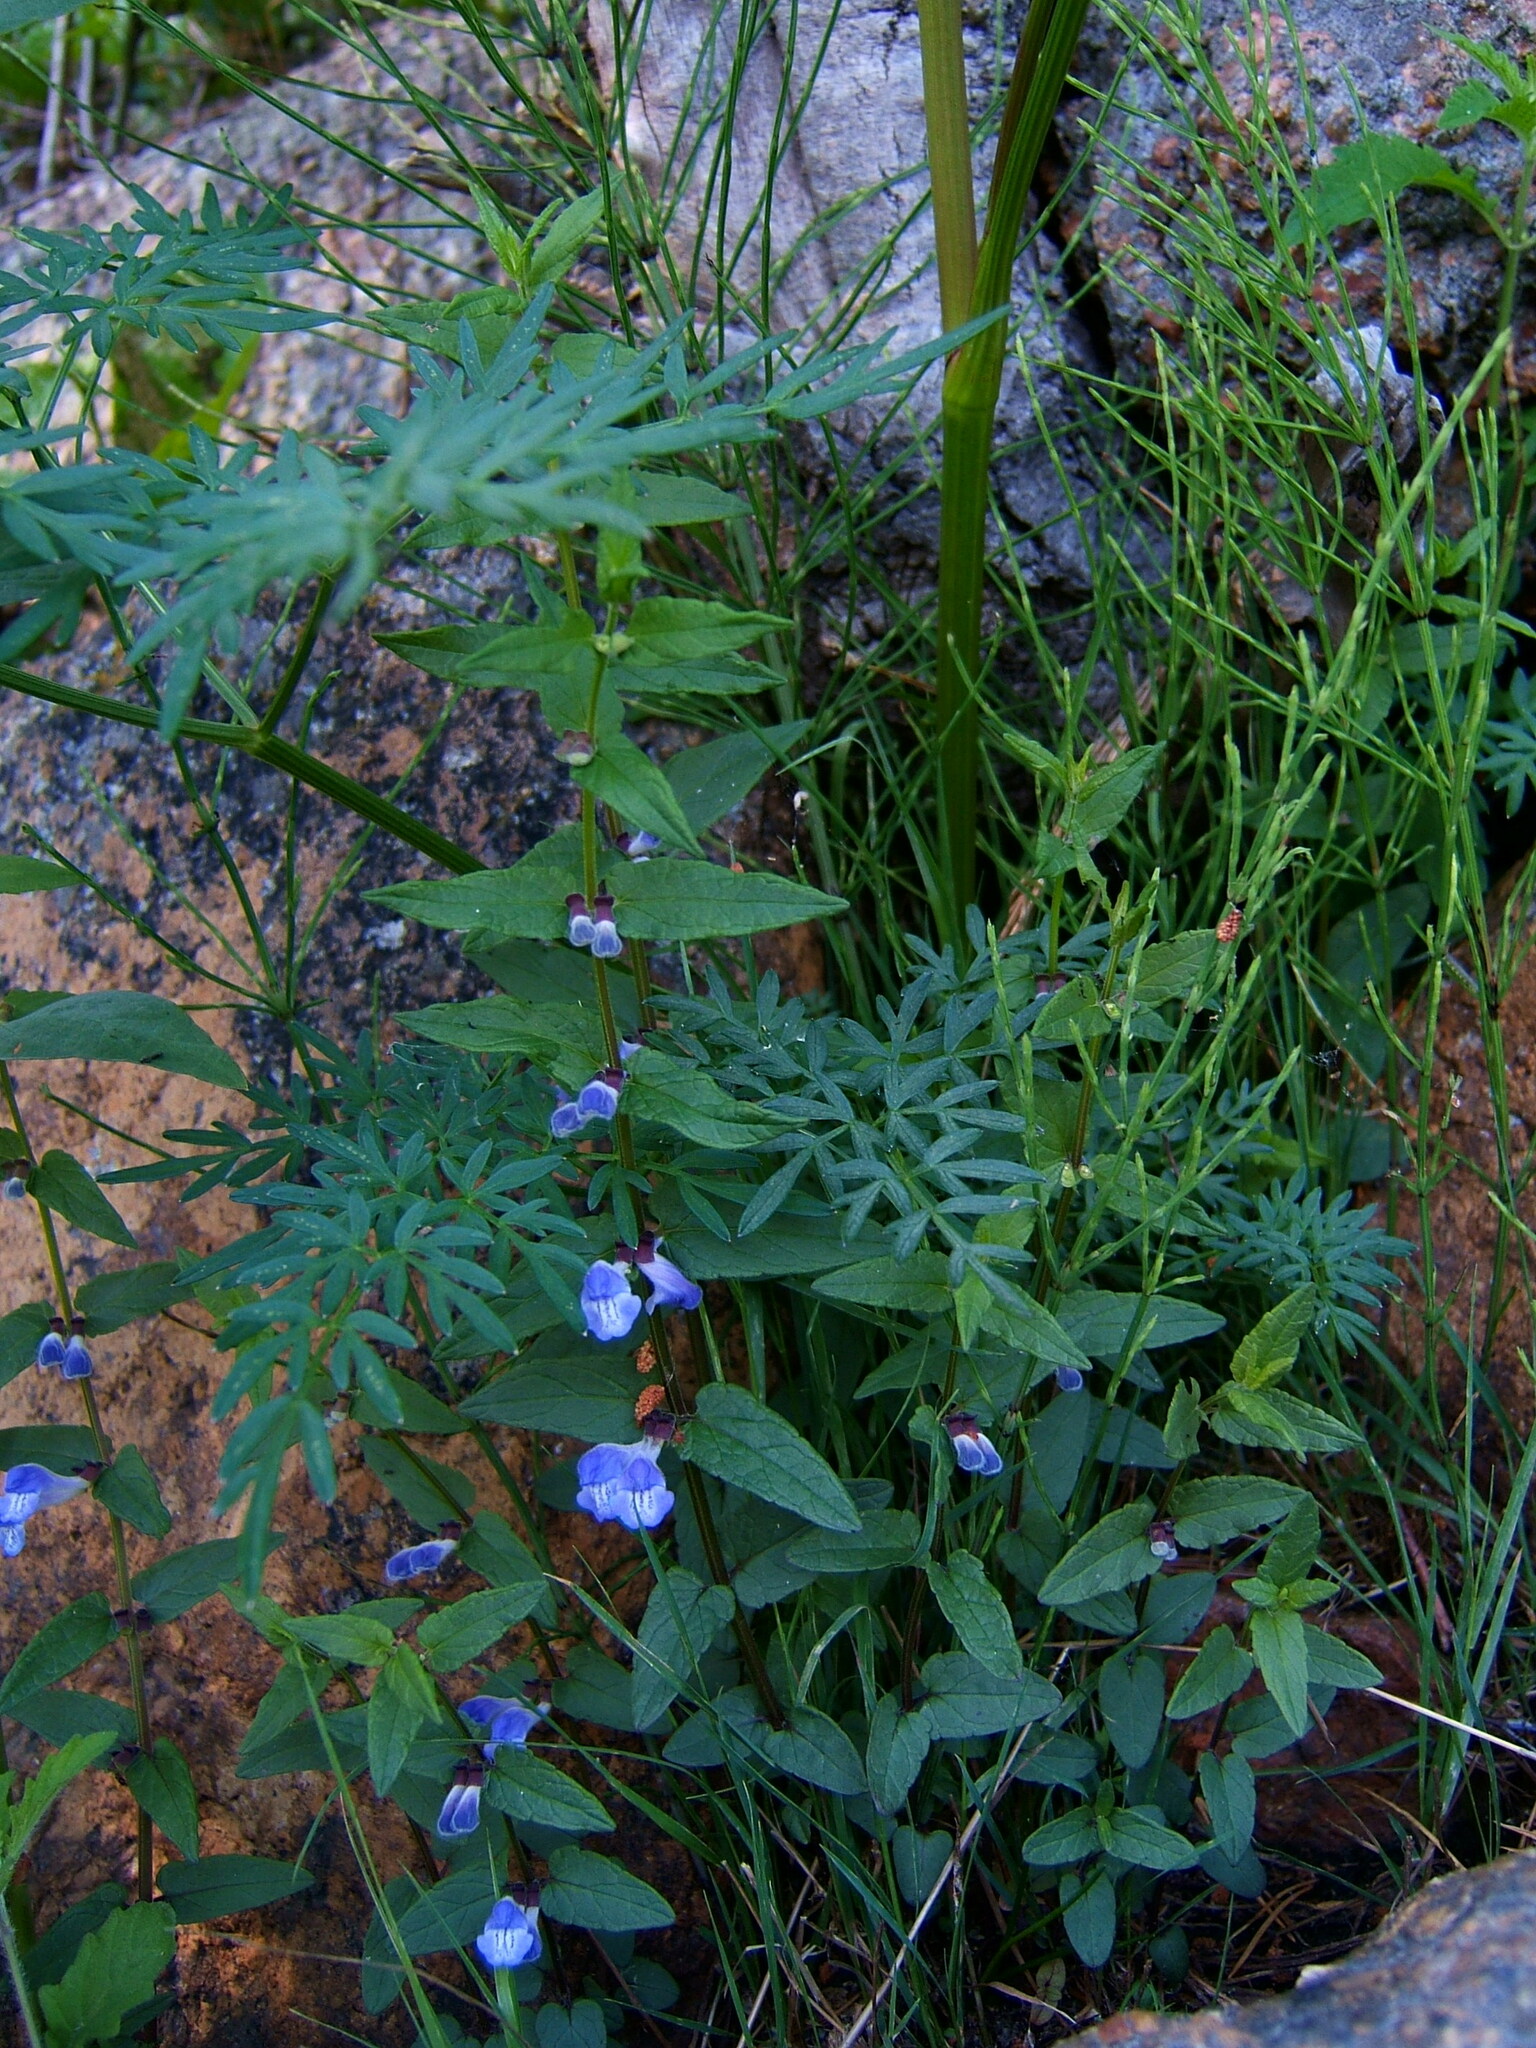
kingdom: Plantae
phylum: Tracheophyta
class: Magnoliopsida
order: Lamiales
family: Lamiaceae
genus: Scutellaria
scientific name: Scutellaria galericulata
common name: Skullcap
